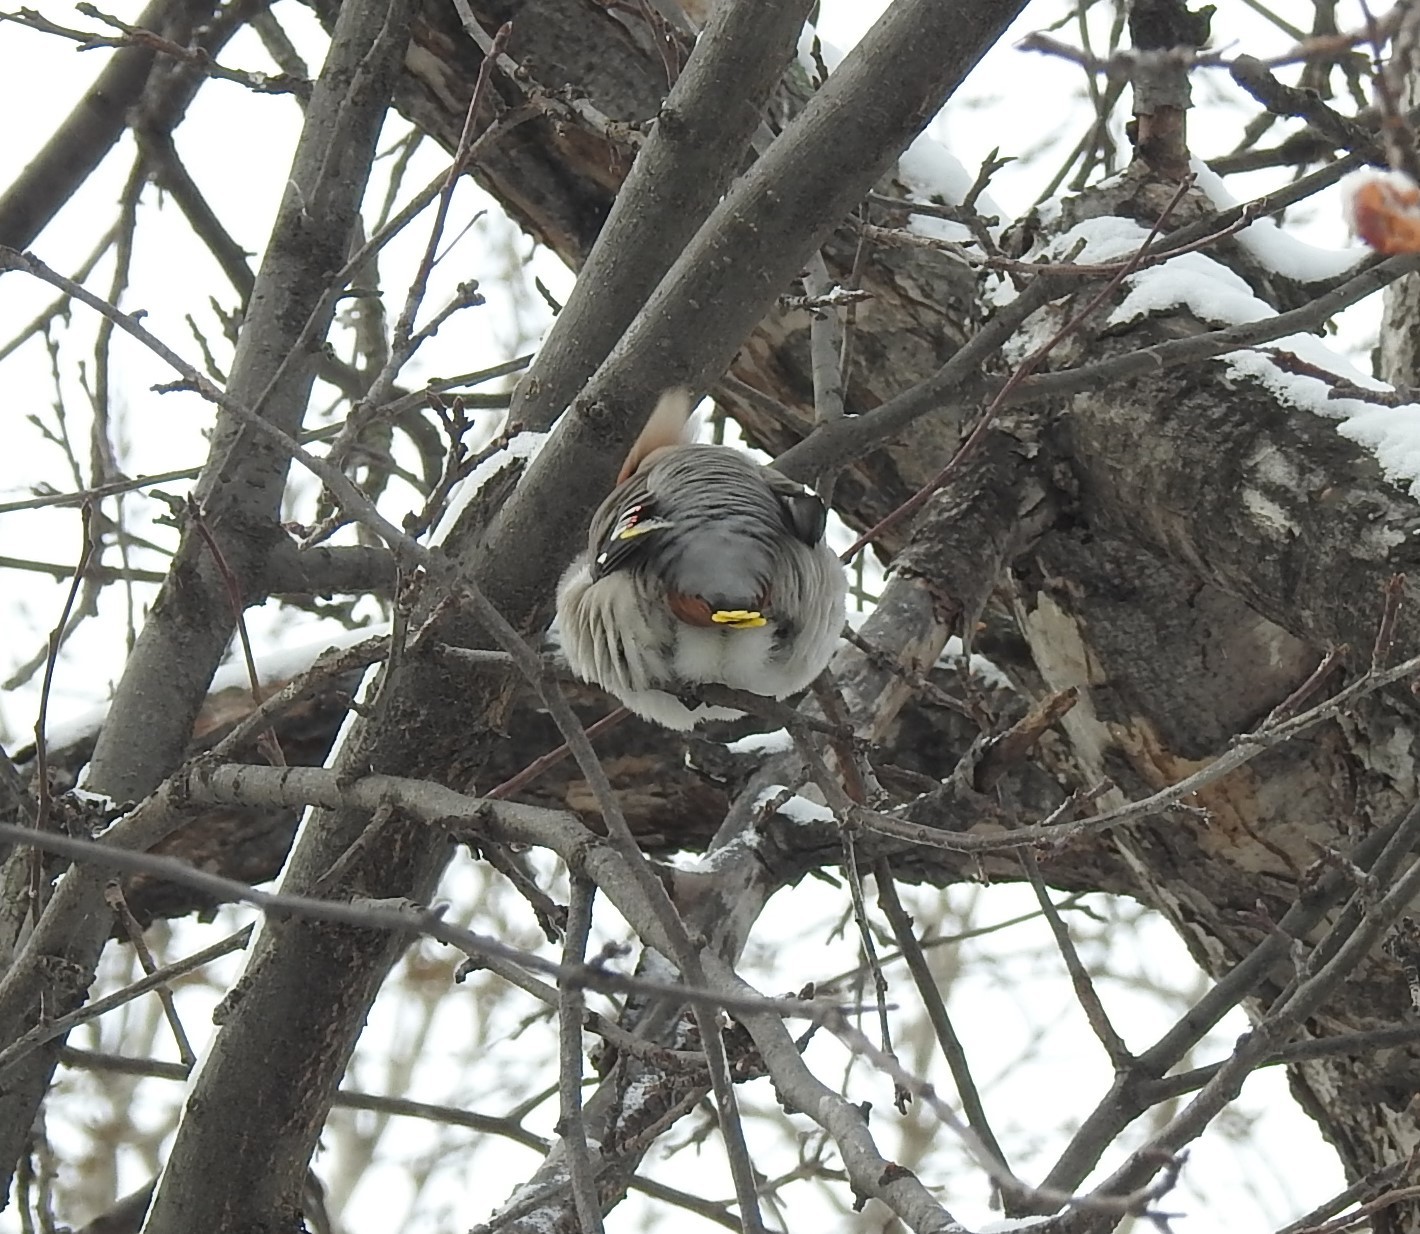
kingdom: Animalia
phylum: Chordata
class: Aves
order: Passeriformes
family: Bombycillidae
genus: Bombycilla
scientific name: Bombycilla garrulus
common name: Bohemian waxwing
